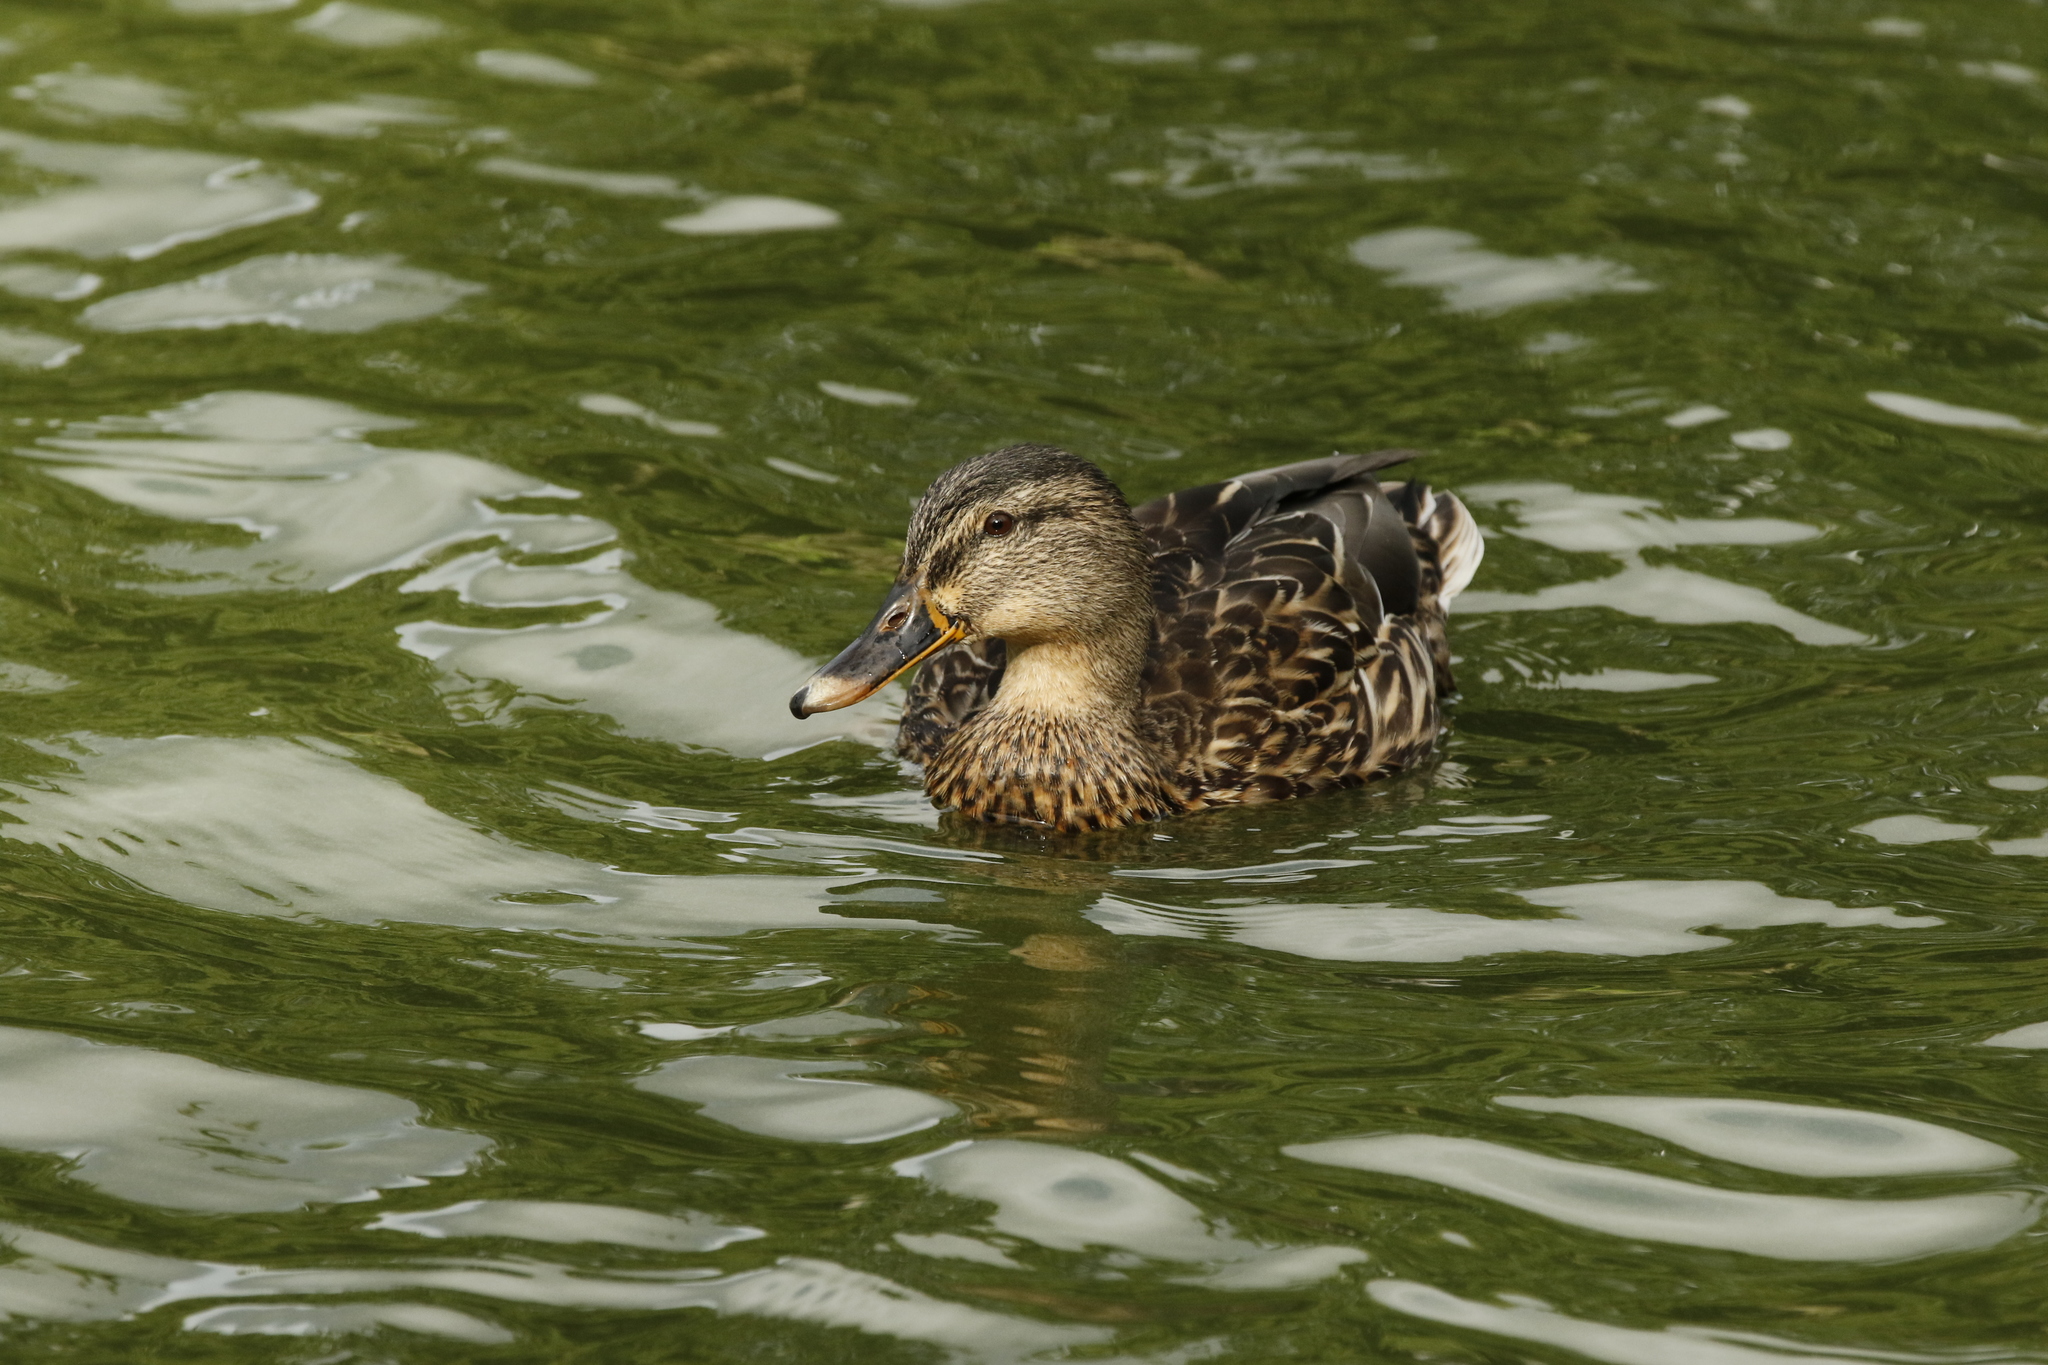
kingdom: Animalia
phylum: Chordata
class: Aves
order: Anseriformes
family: Anatidae
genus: Anas
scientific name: Anas platyrhynchos
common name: Mallard
